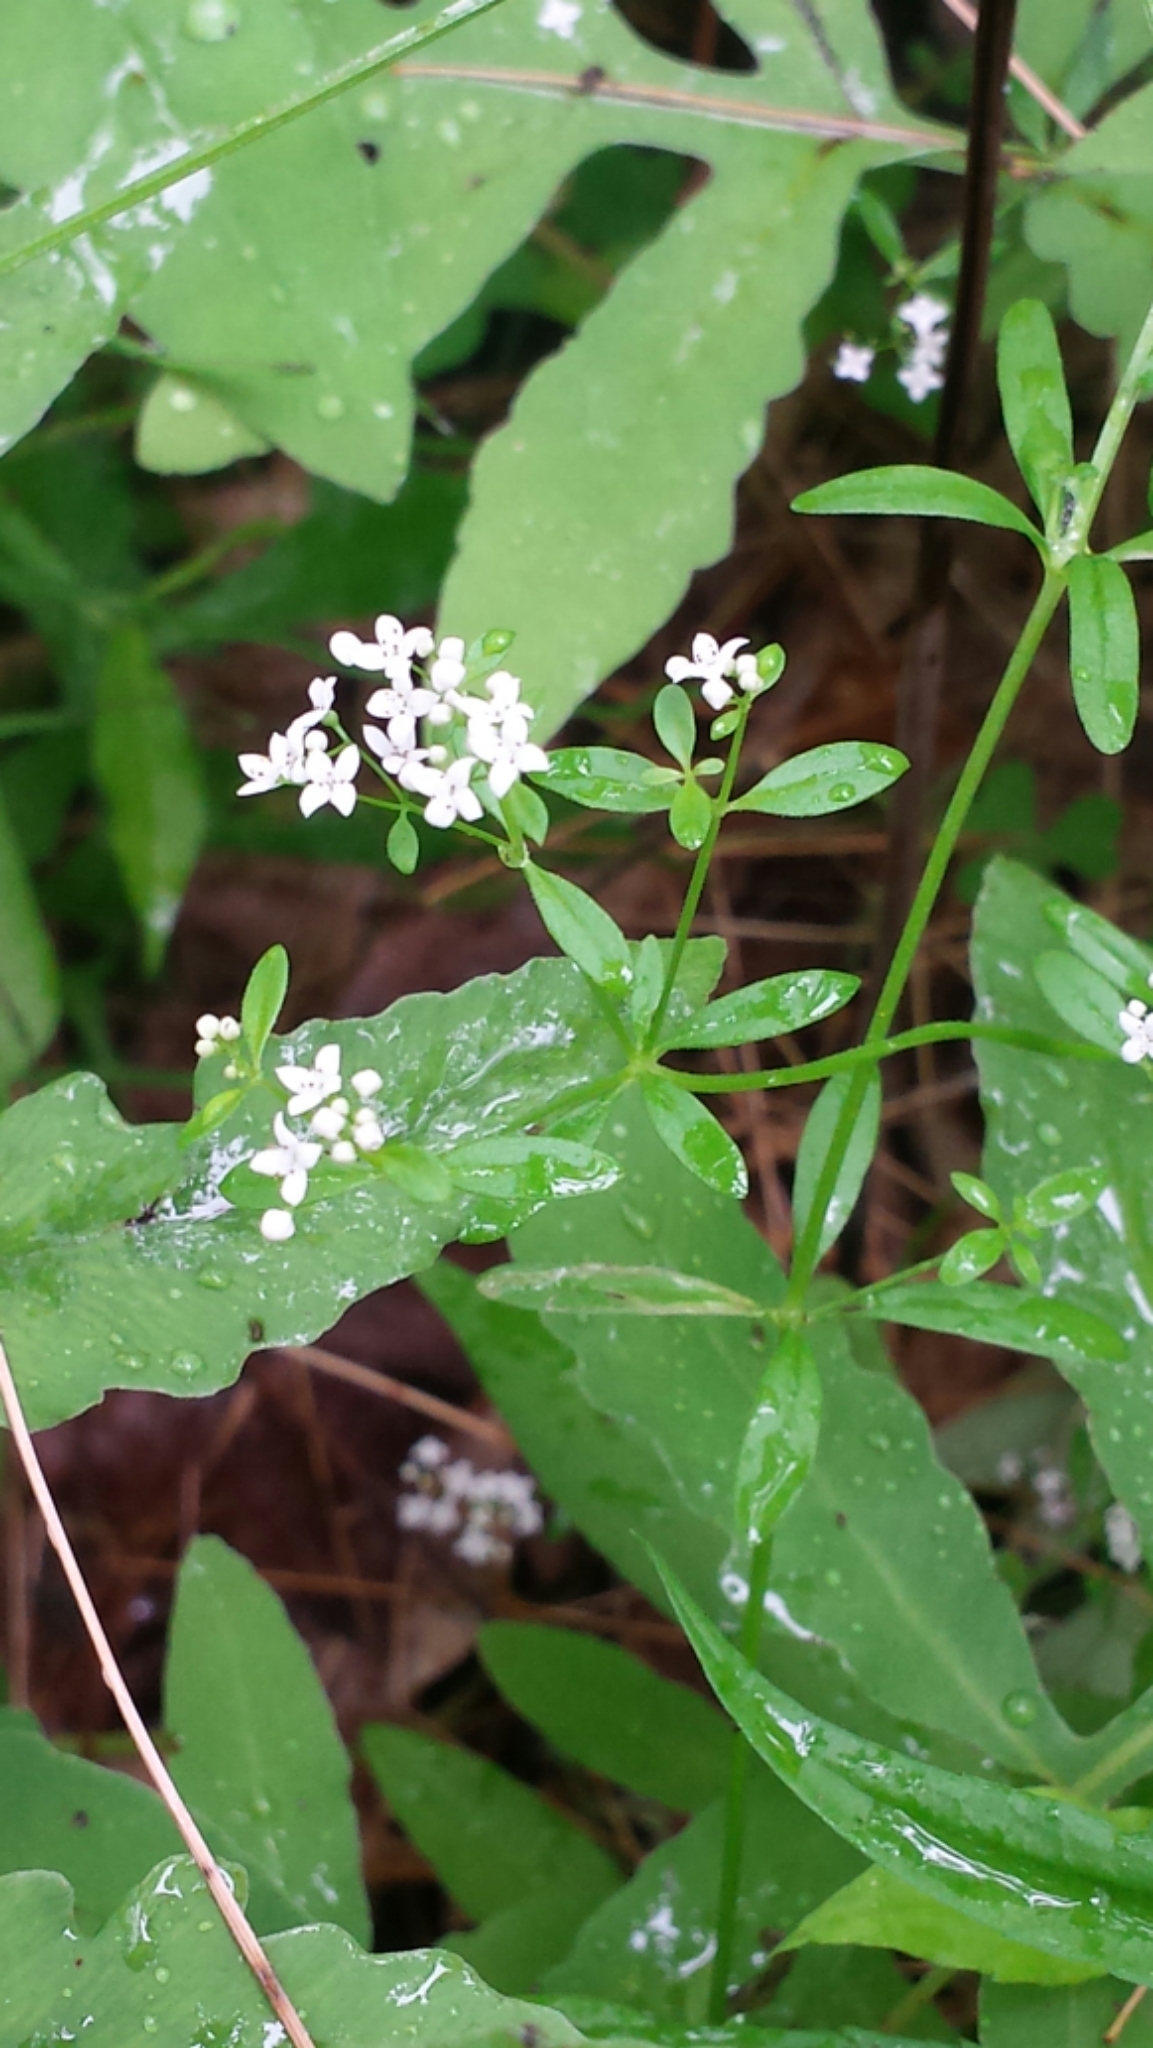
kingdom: Plantae
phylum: Tracheophyta
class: Magnoliopsida
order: Gentianales
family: Rubiaceae
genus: Galium
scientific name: Galium palustre
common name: Common marsh-bedstraw
